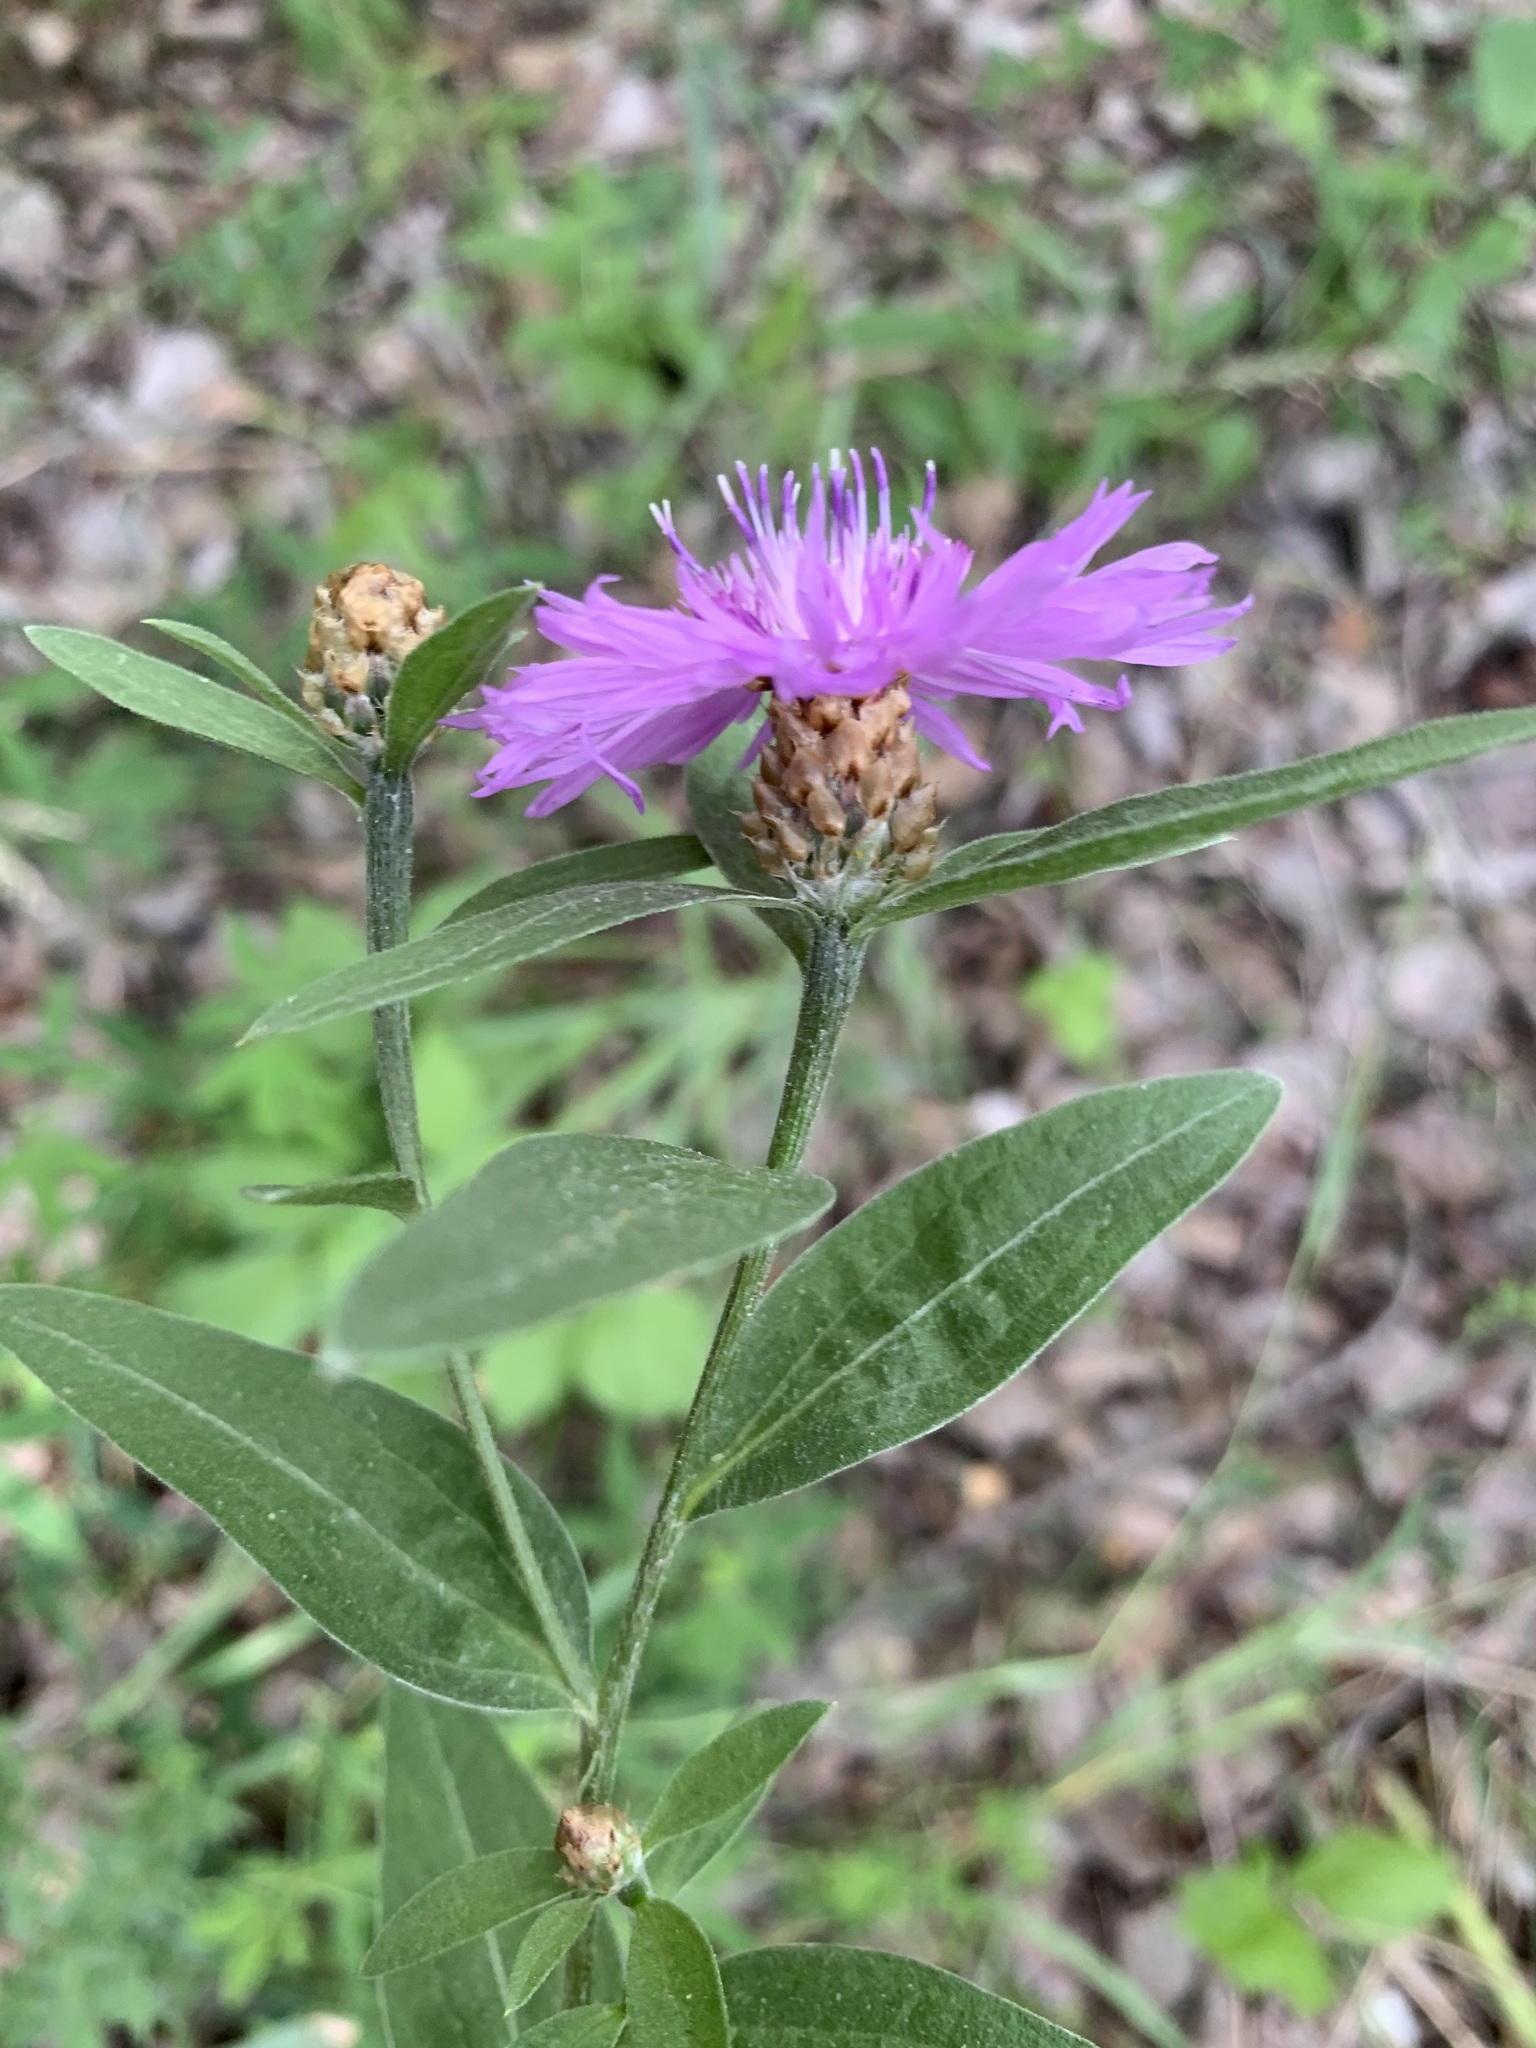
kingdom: Plantae
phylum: Tracheophyta
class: Magnoliopsida
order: Asterales
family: Asteraceae
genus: Centaurea
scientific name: Centaurea jacea
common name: Brown knapweed
